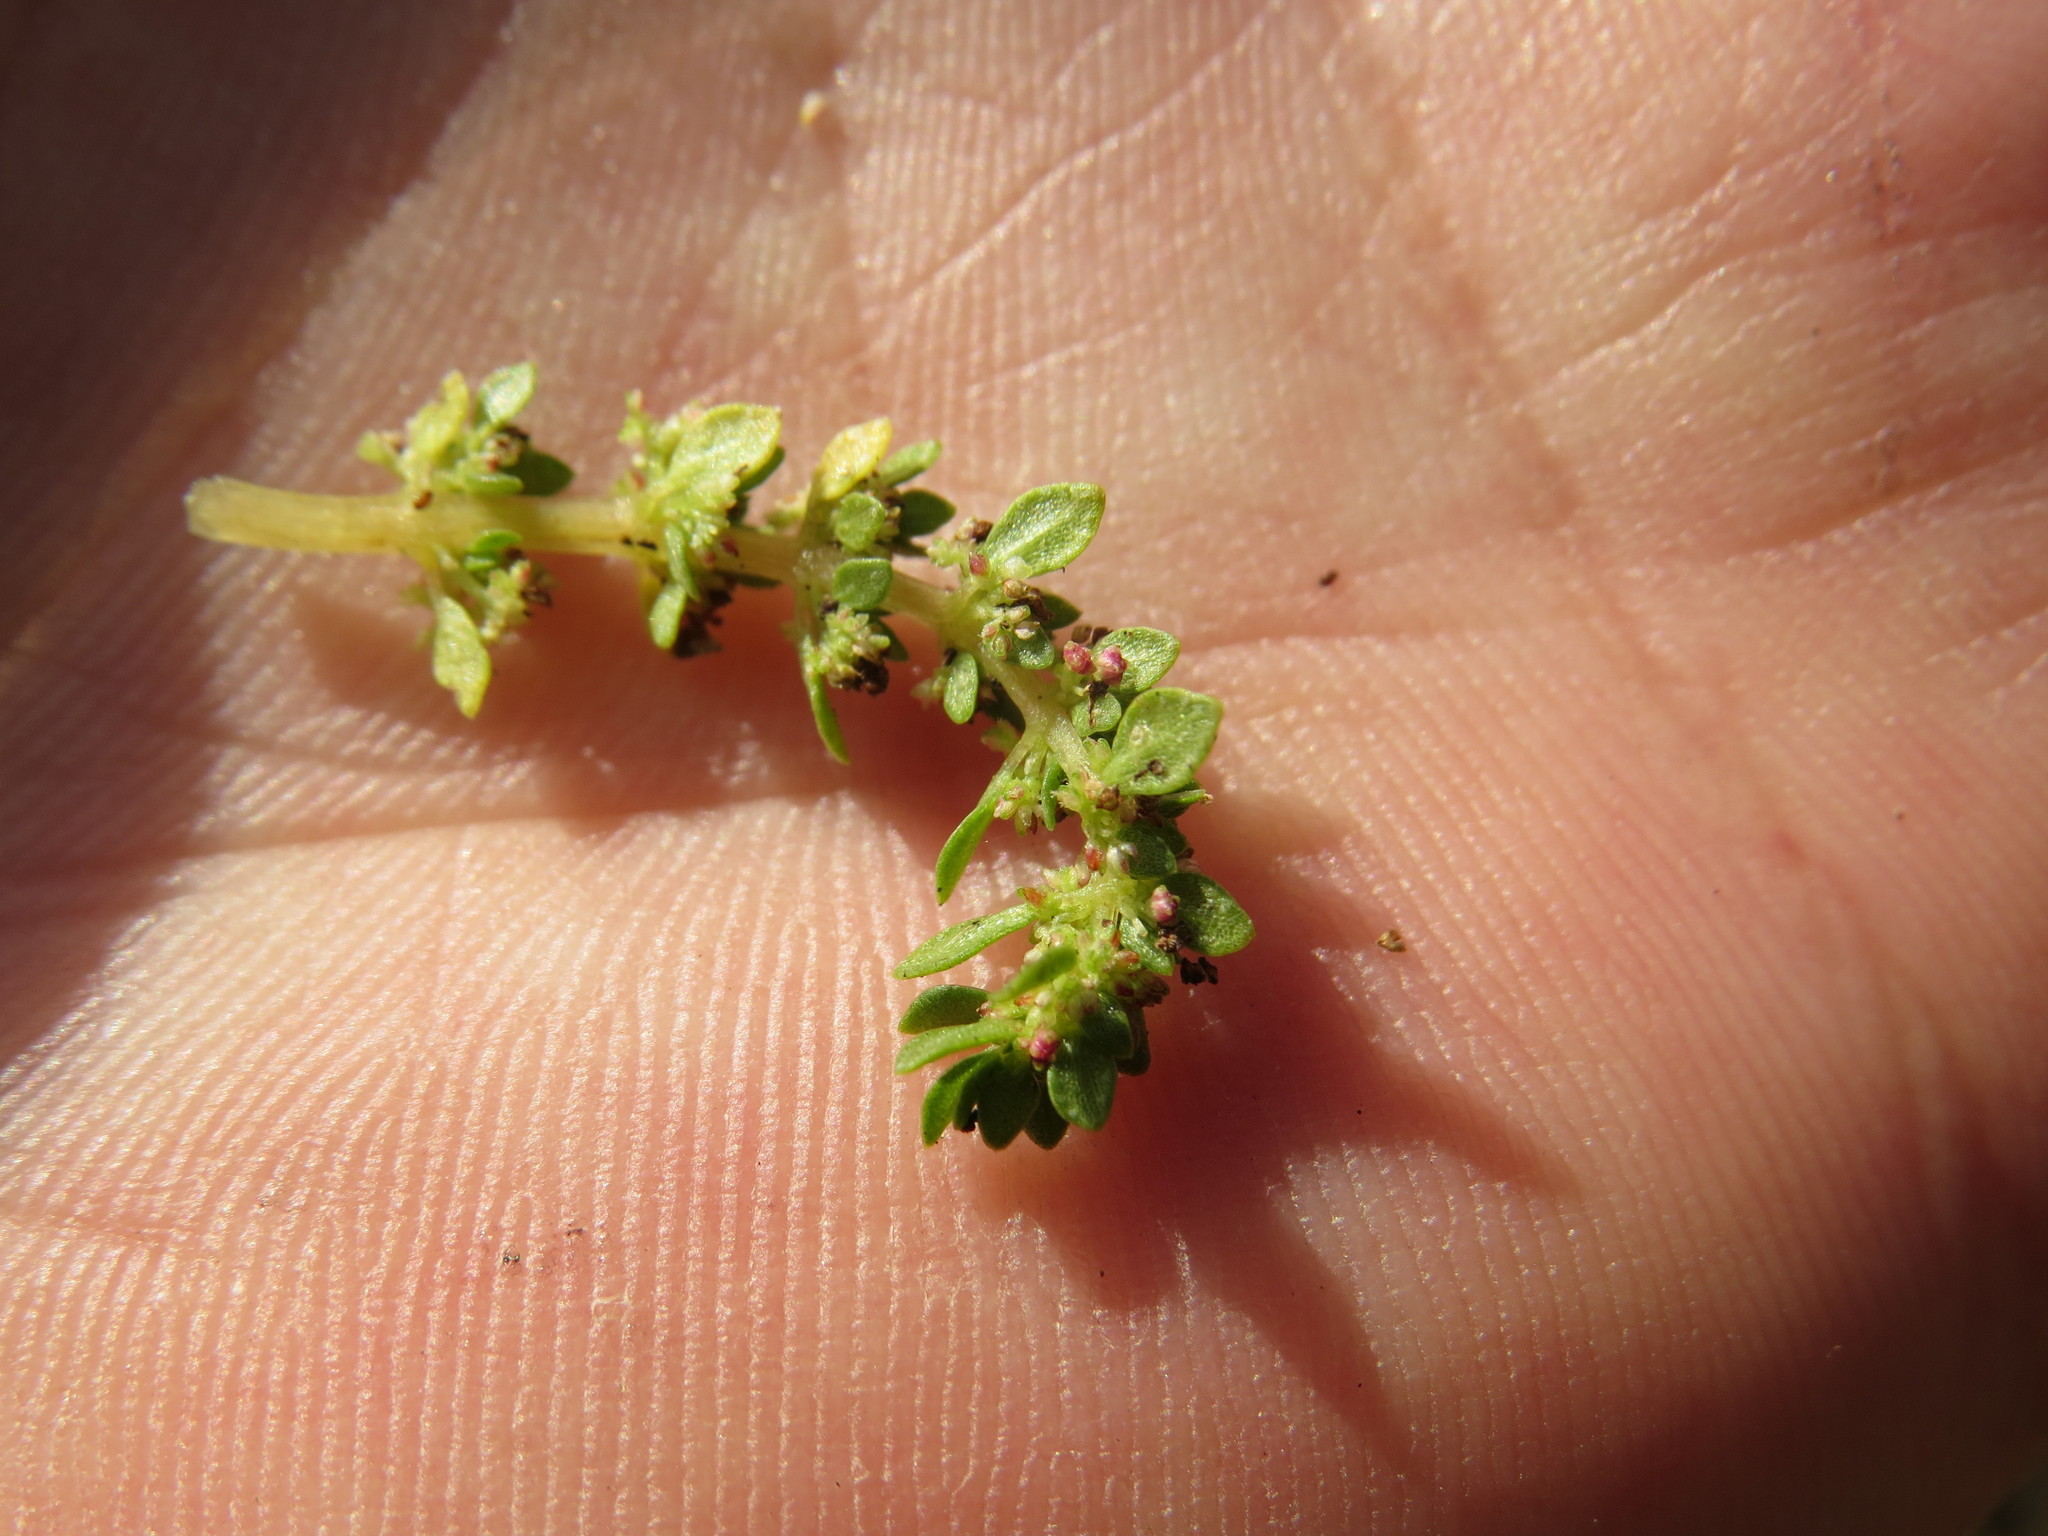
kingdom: Plantae
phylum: Tracheophyta
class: Magnoliopsida
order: Rosales
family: Urticaceae
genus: Pilea
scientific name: Pilea microphylla
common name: Artillery-plant
